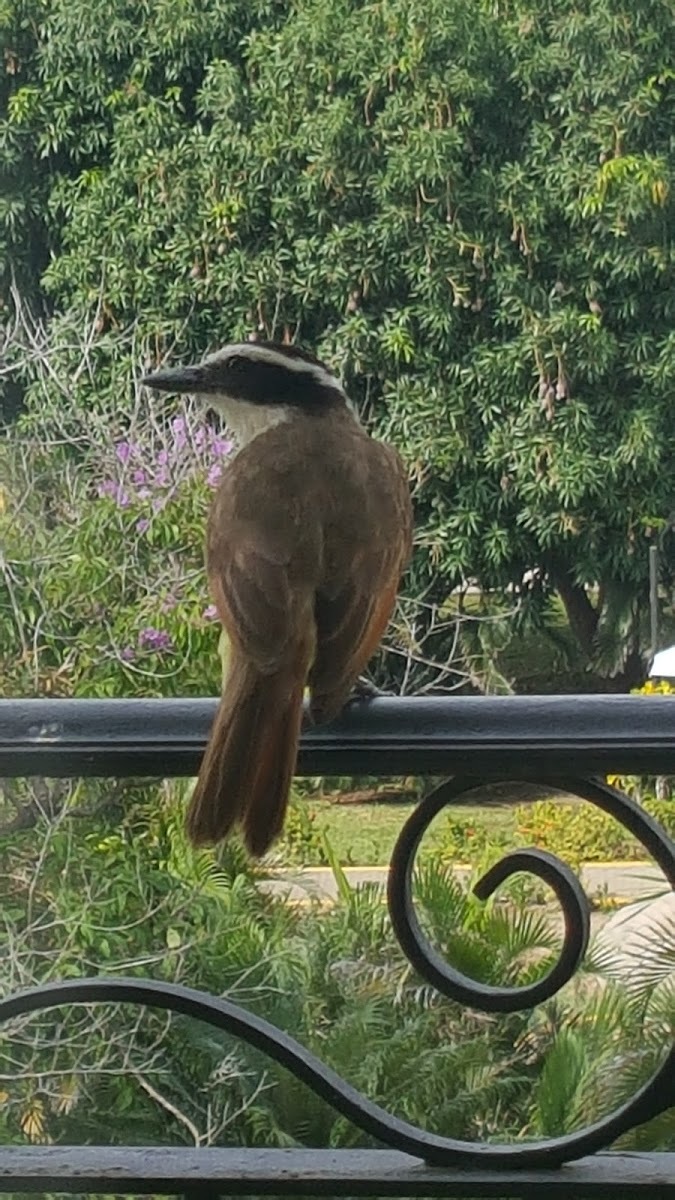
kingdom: Animalia
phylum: Chordata
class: Aves
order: Passeriformes
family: Tyrannidae
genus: Pitangus
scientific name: Pitangus sulphuratus
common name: Great kiskadee
